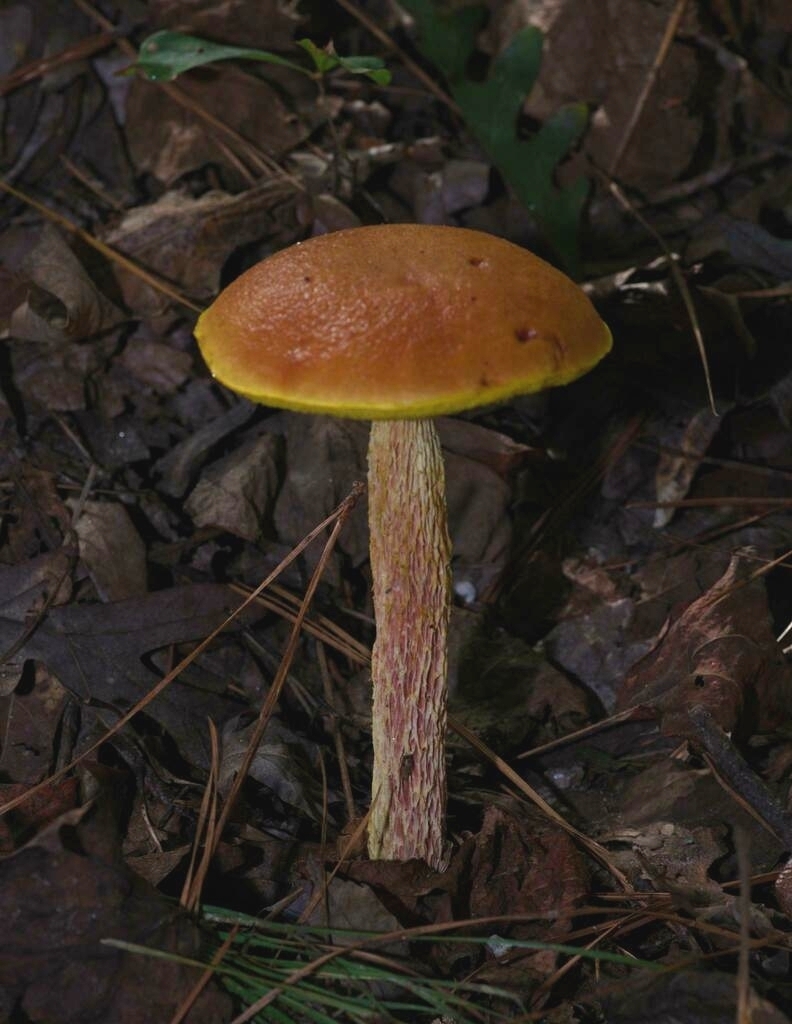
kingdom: Fungi
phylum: Basidiomycota
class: Agaricomycetes
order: Boletales
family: Boletaceae
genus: Aureoboletus
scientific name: Aureoboletus betula
